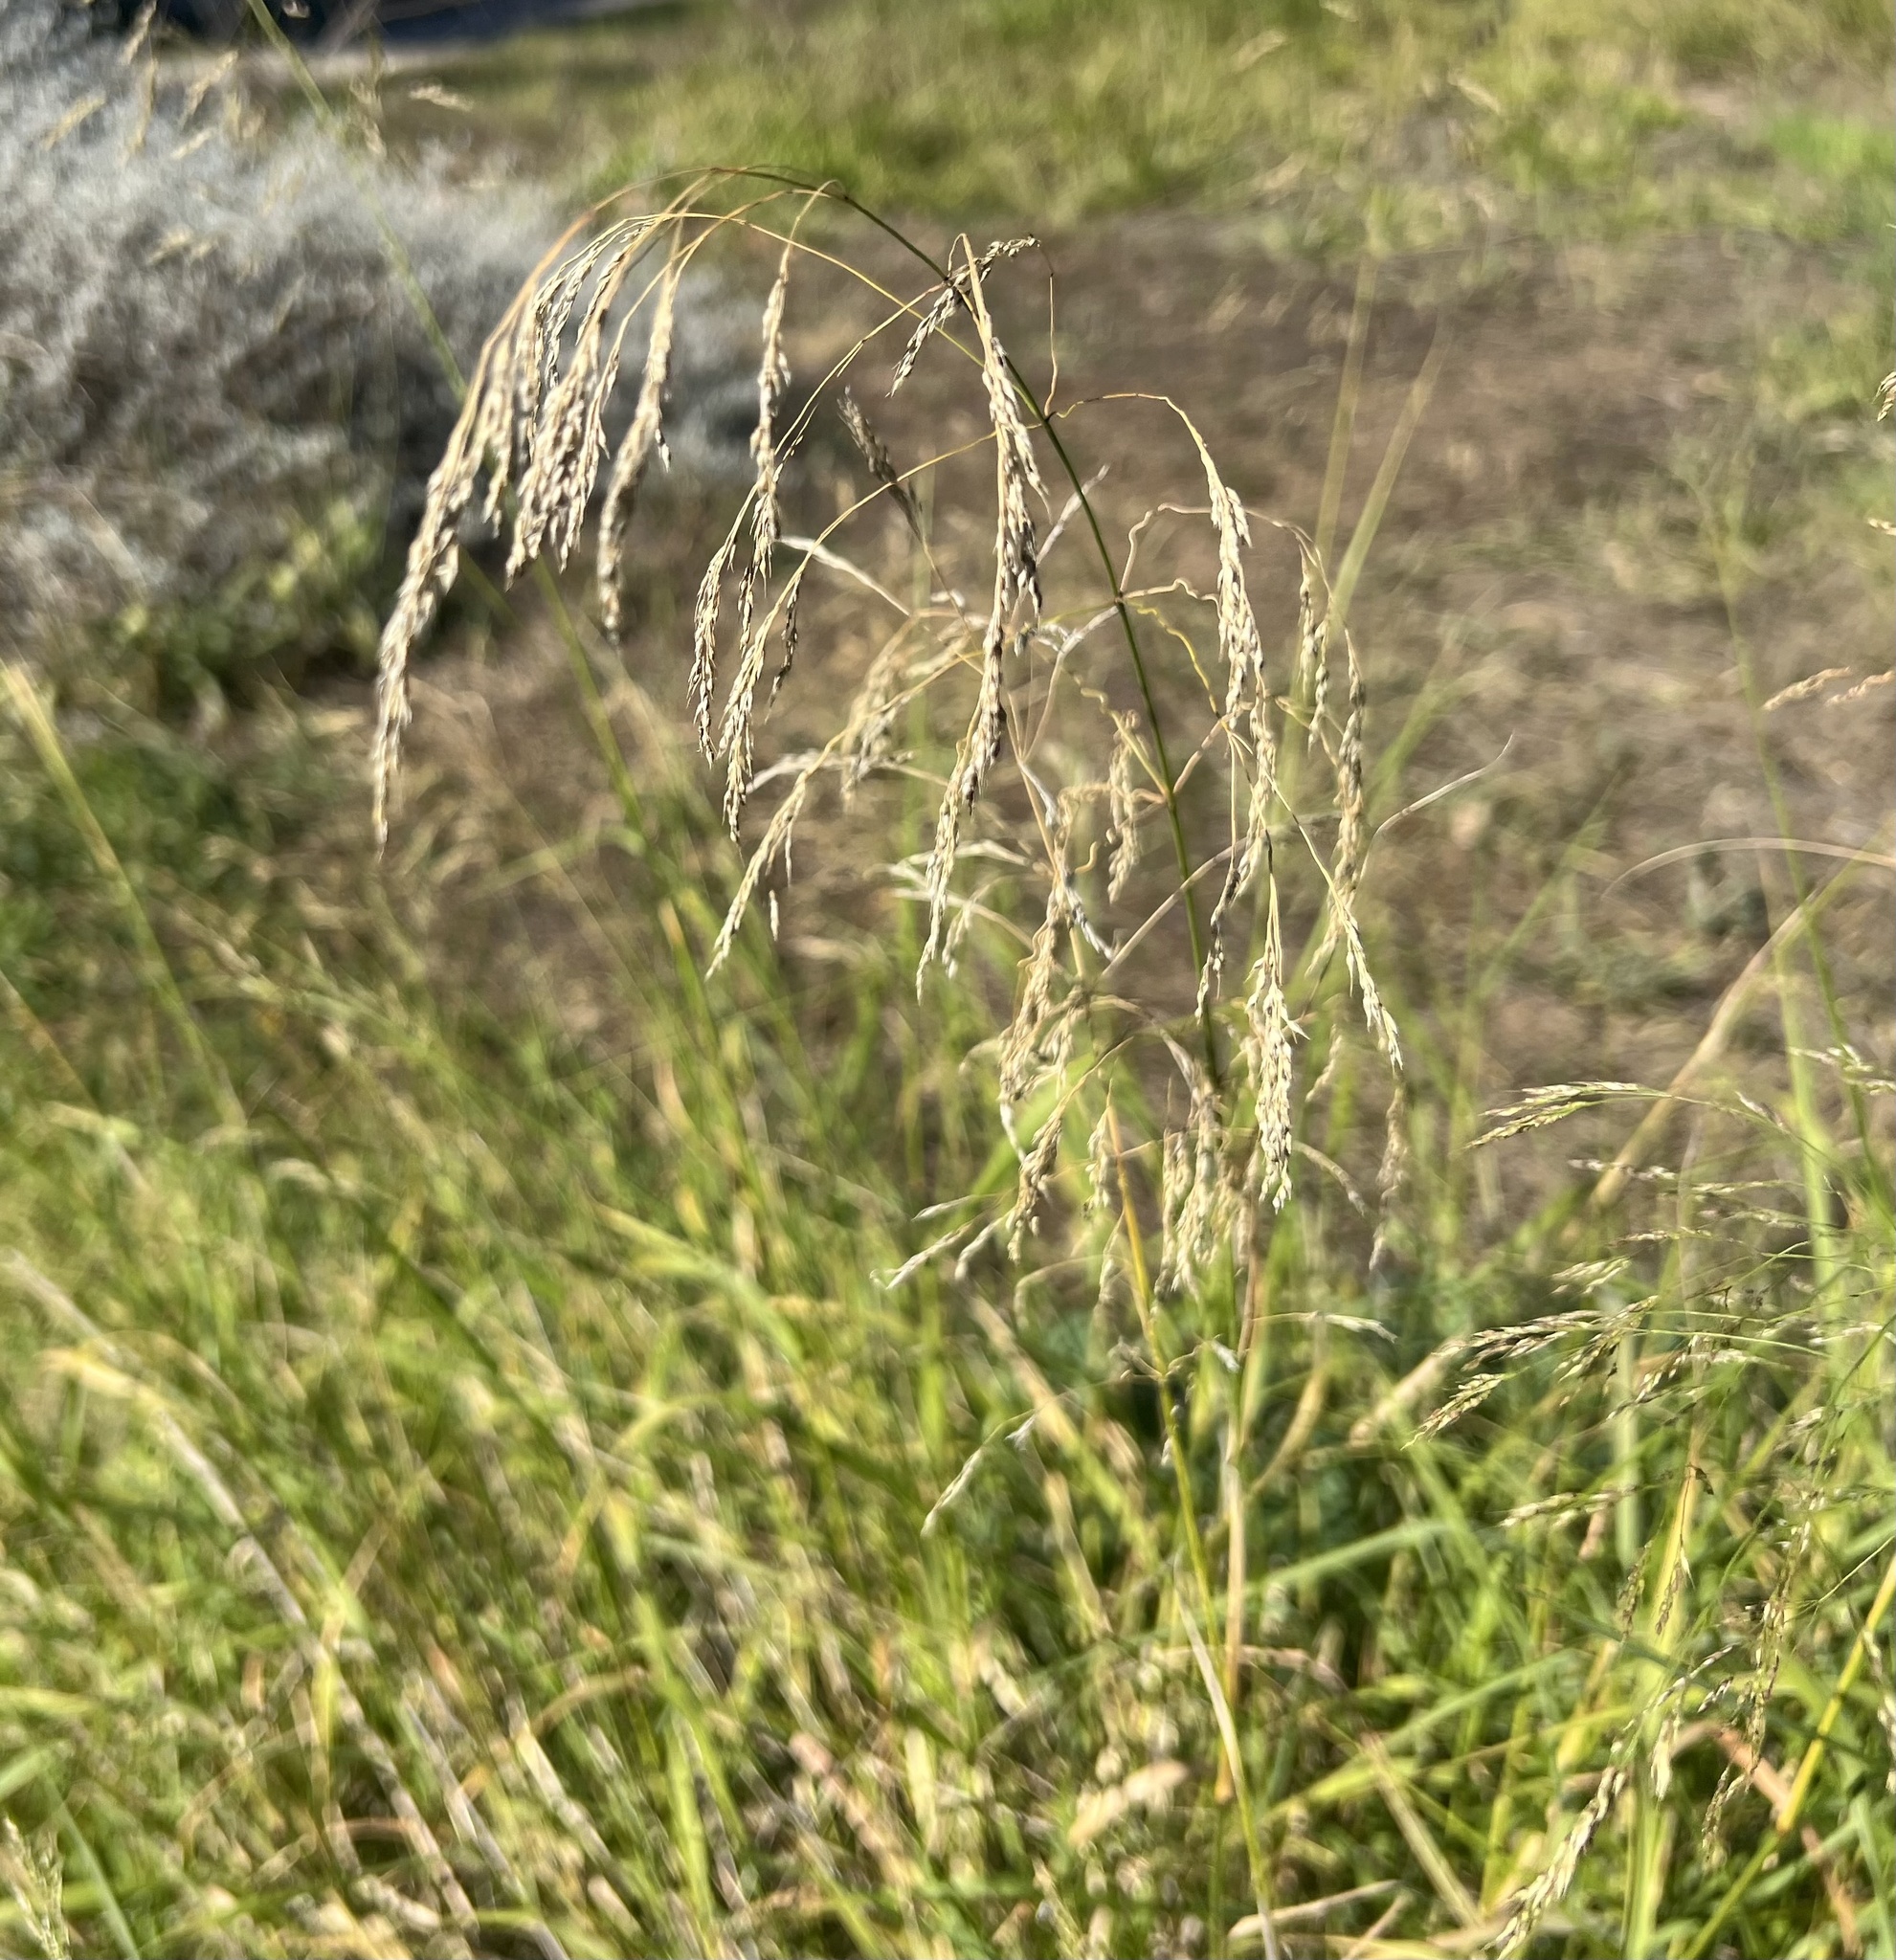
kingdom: Plantae
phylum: Tracheophyta
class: Liliopsida
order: Poales
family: Poaceae
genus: Oloptum
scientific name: Oloptum miliaceum
